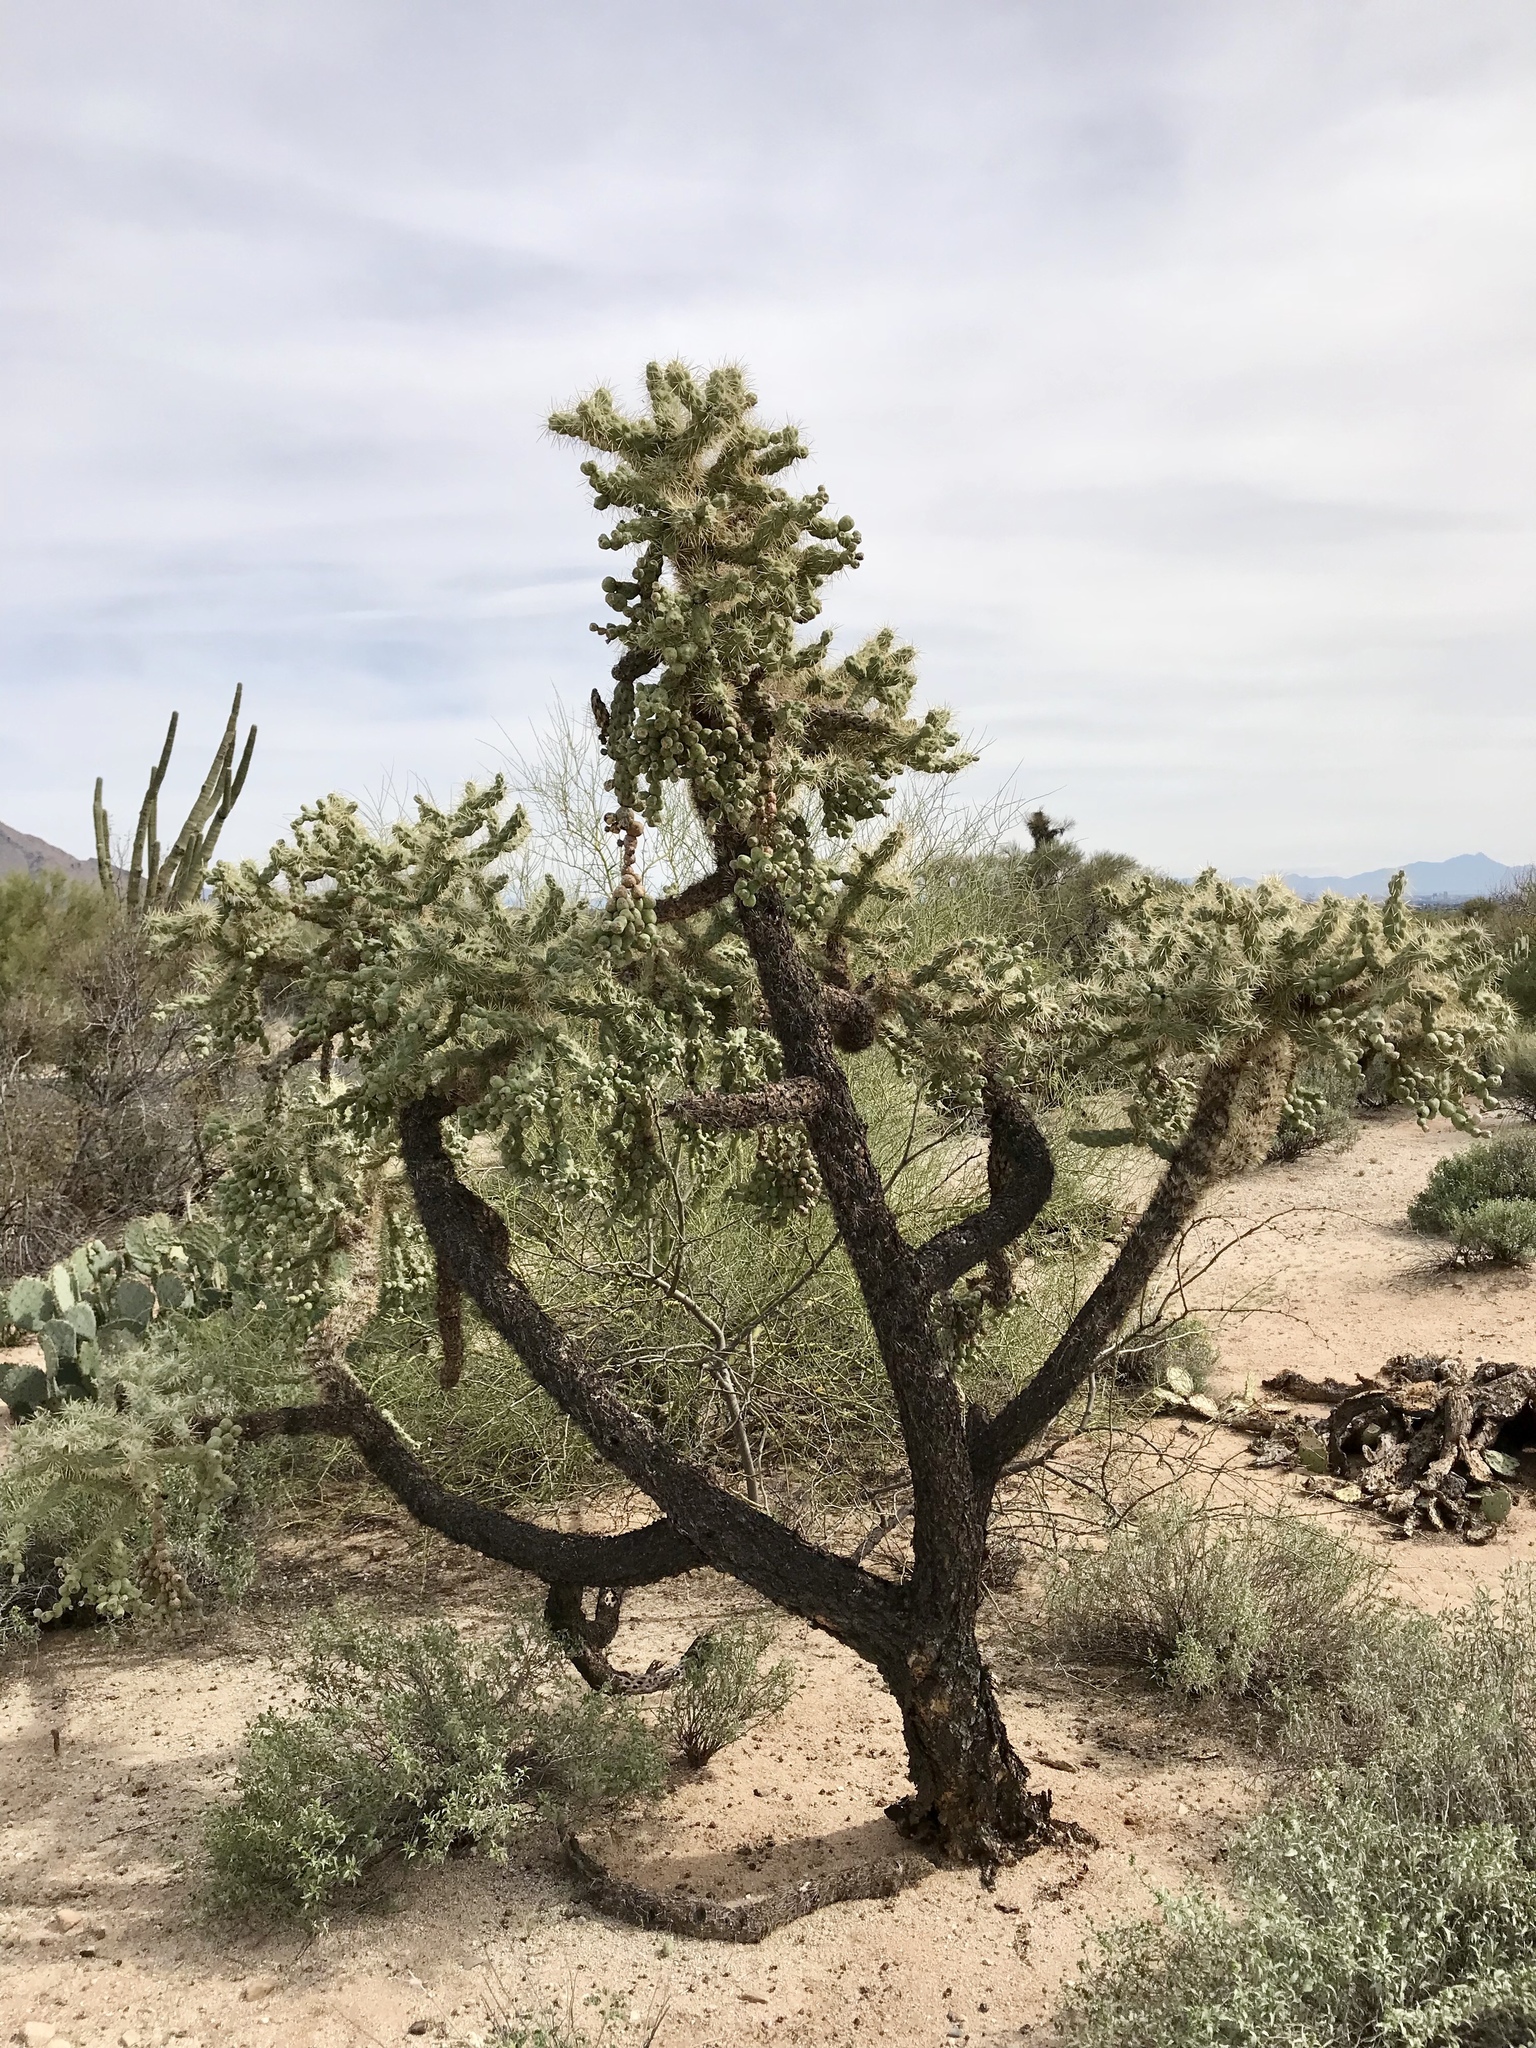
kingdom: Plantae
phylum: Tracheophyta
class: Magnoliopsida
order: Caryophyllales
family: Cactaceae
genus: Cylindropuntia
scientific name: Cylindropuntia fulgida
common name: Jumping cholla
